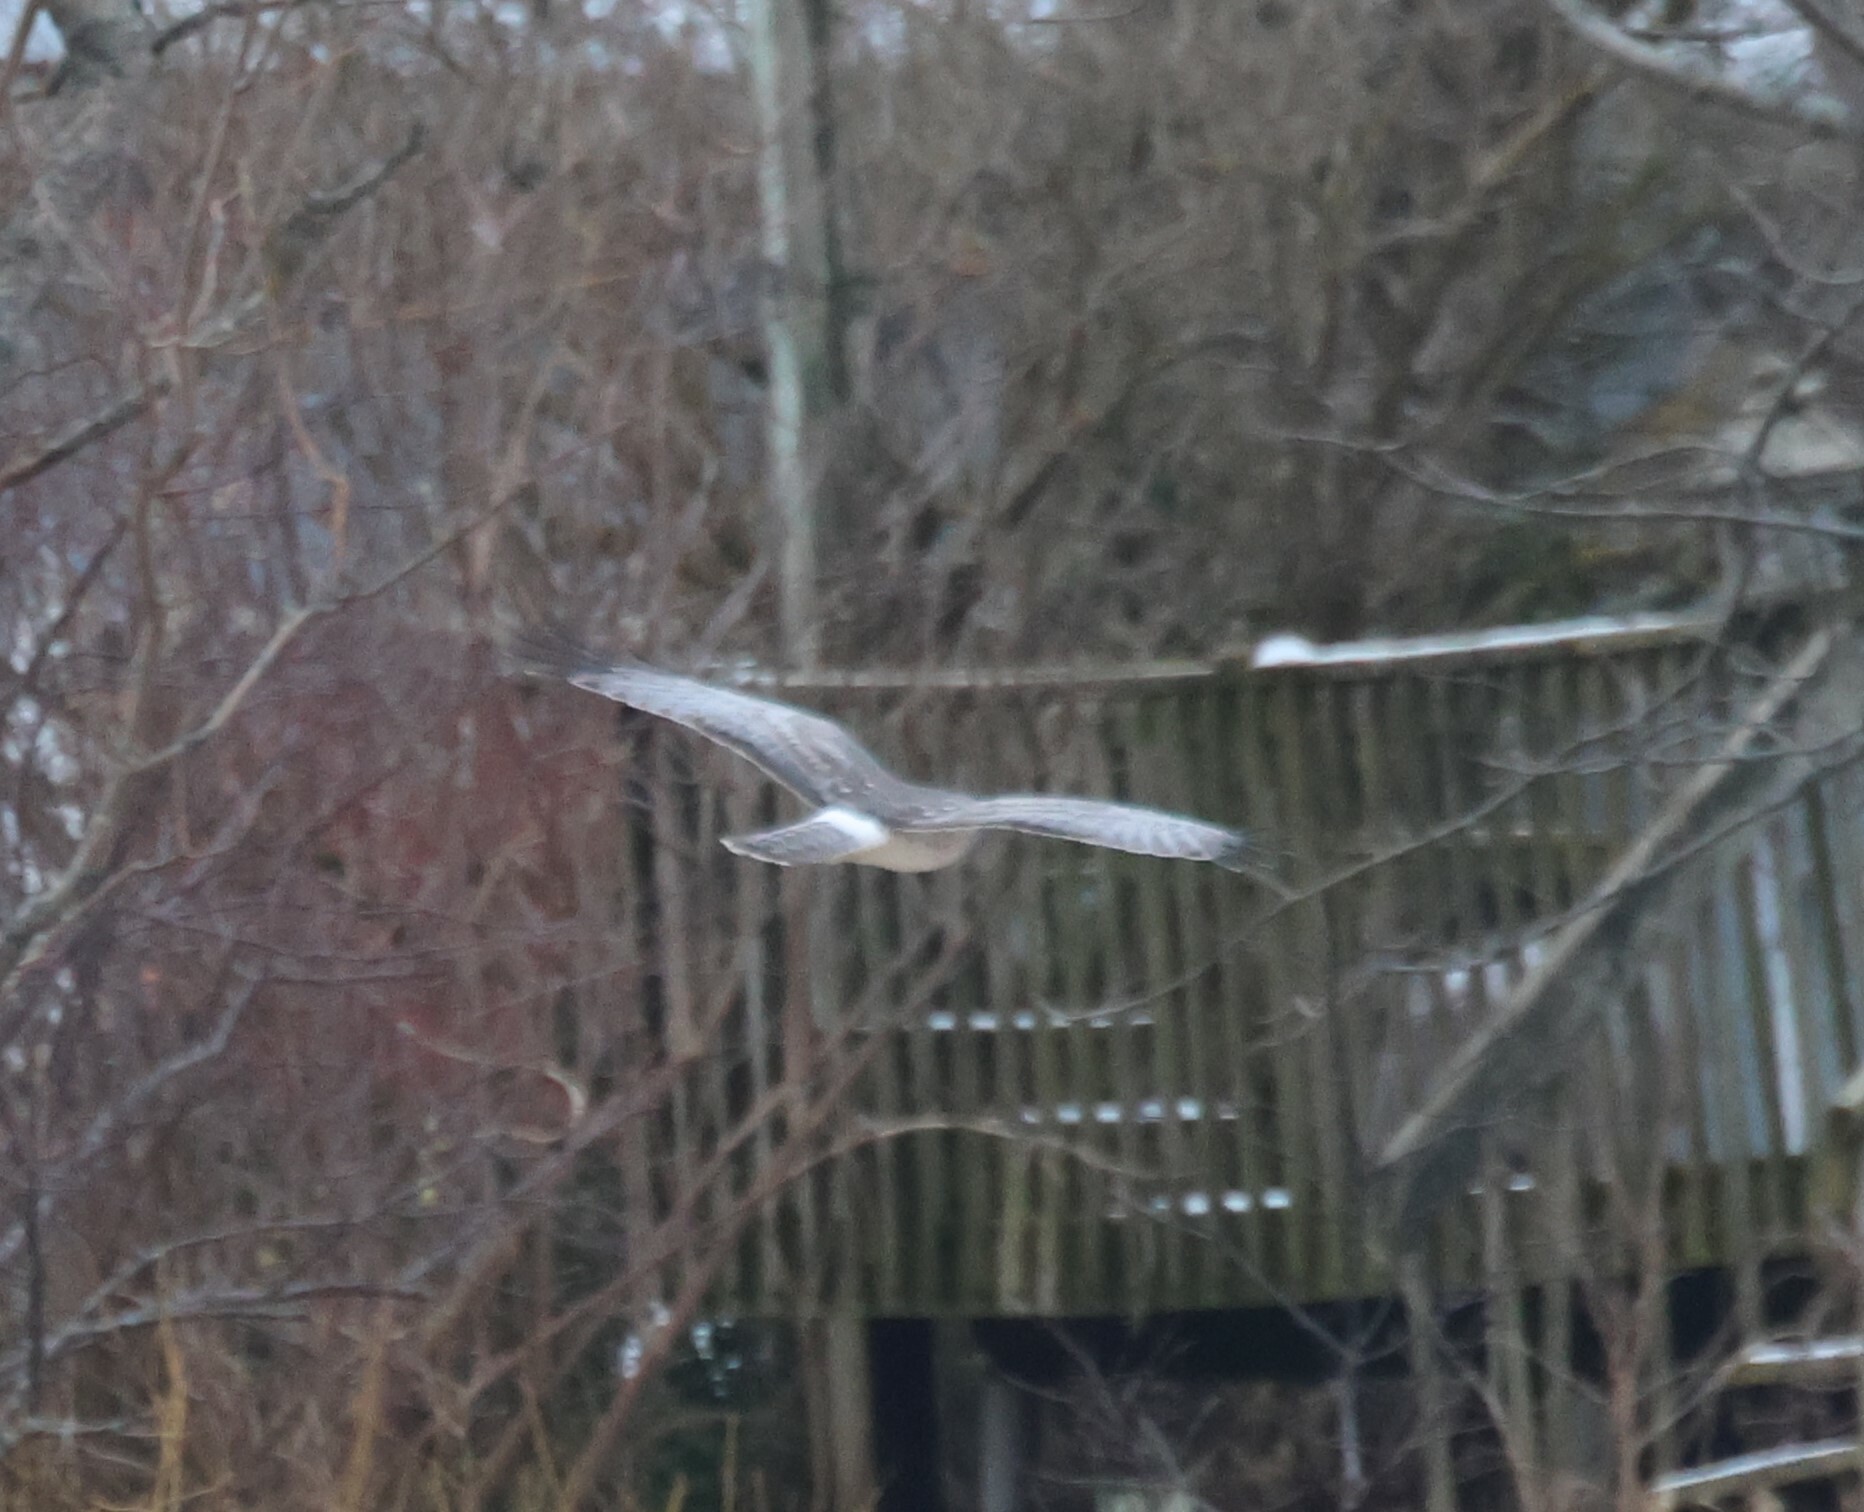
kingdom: Animalia
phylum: Chordata
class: Aves
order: Accipitriformes
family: Accipitridae
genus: Circus
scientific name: Circus cyaneus
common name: Hen harrier
